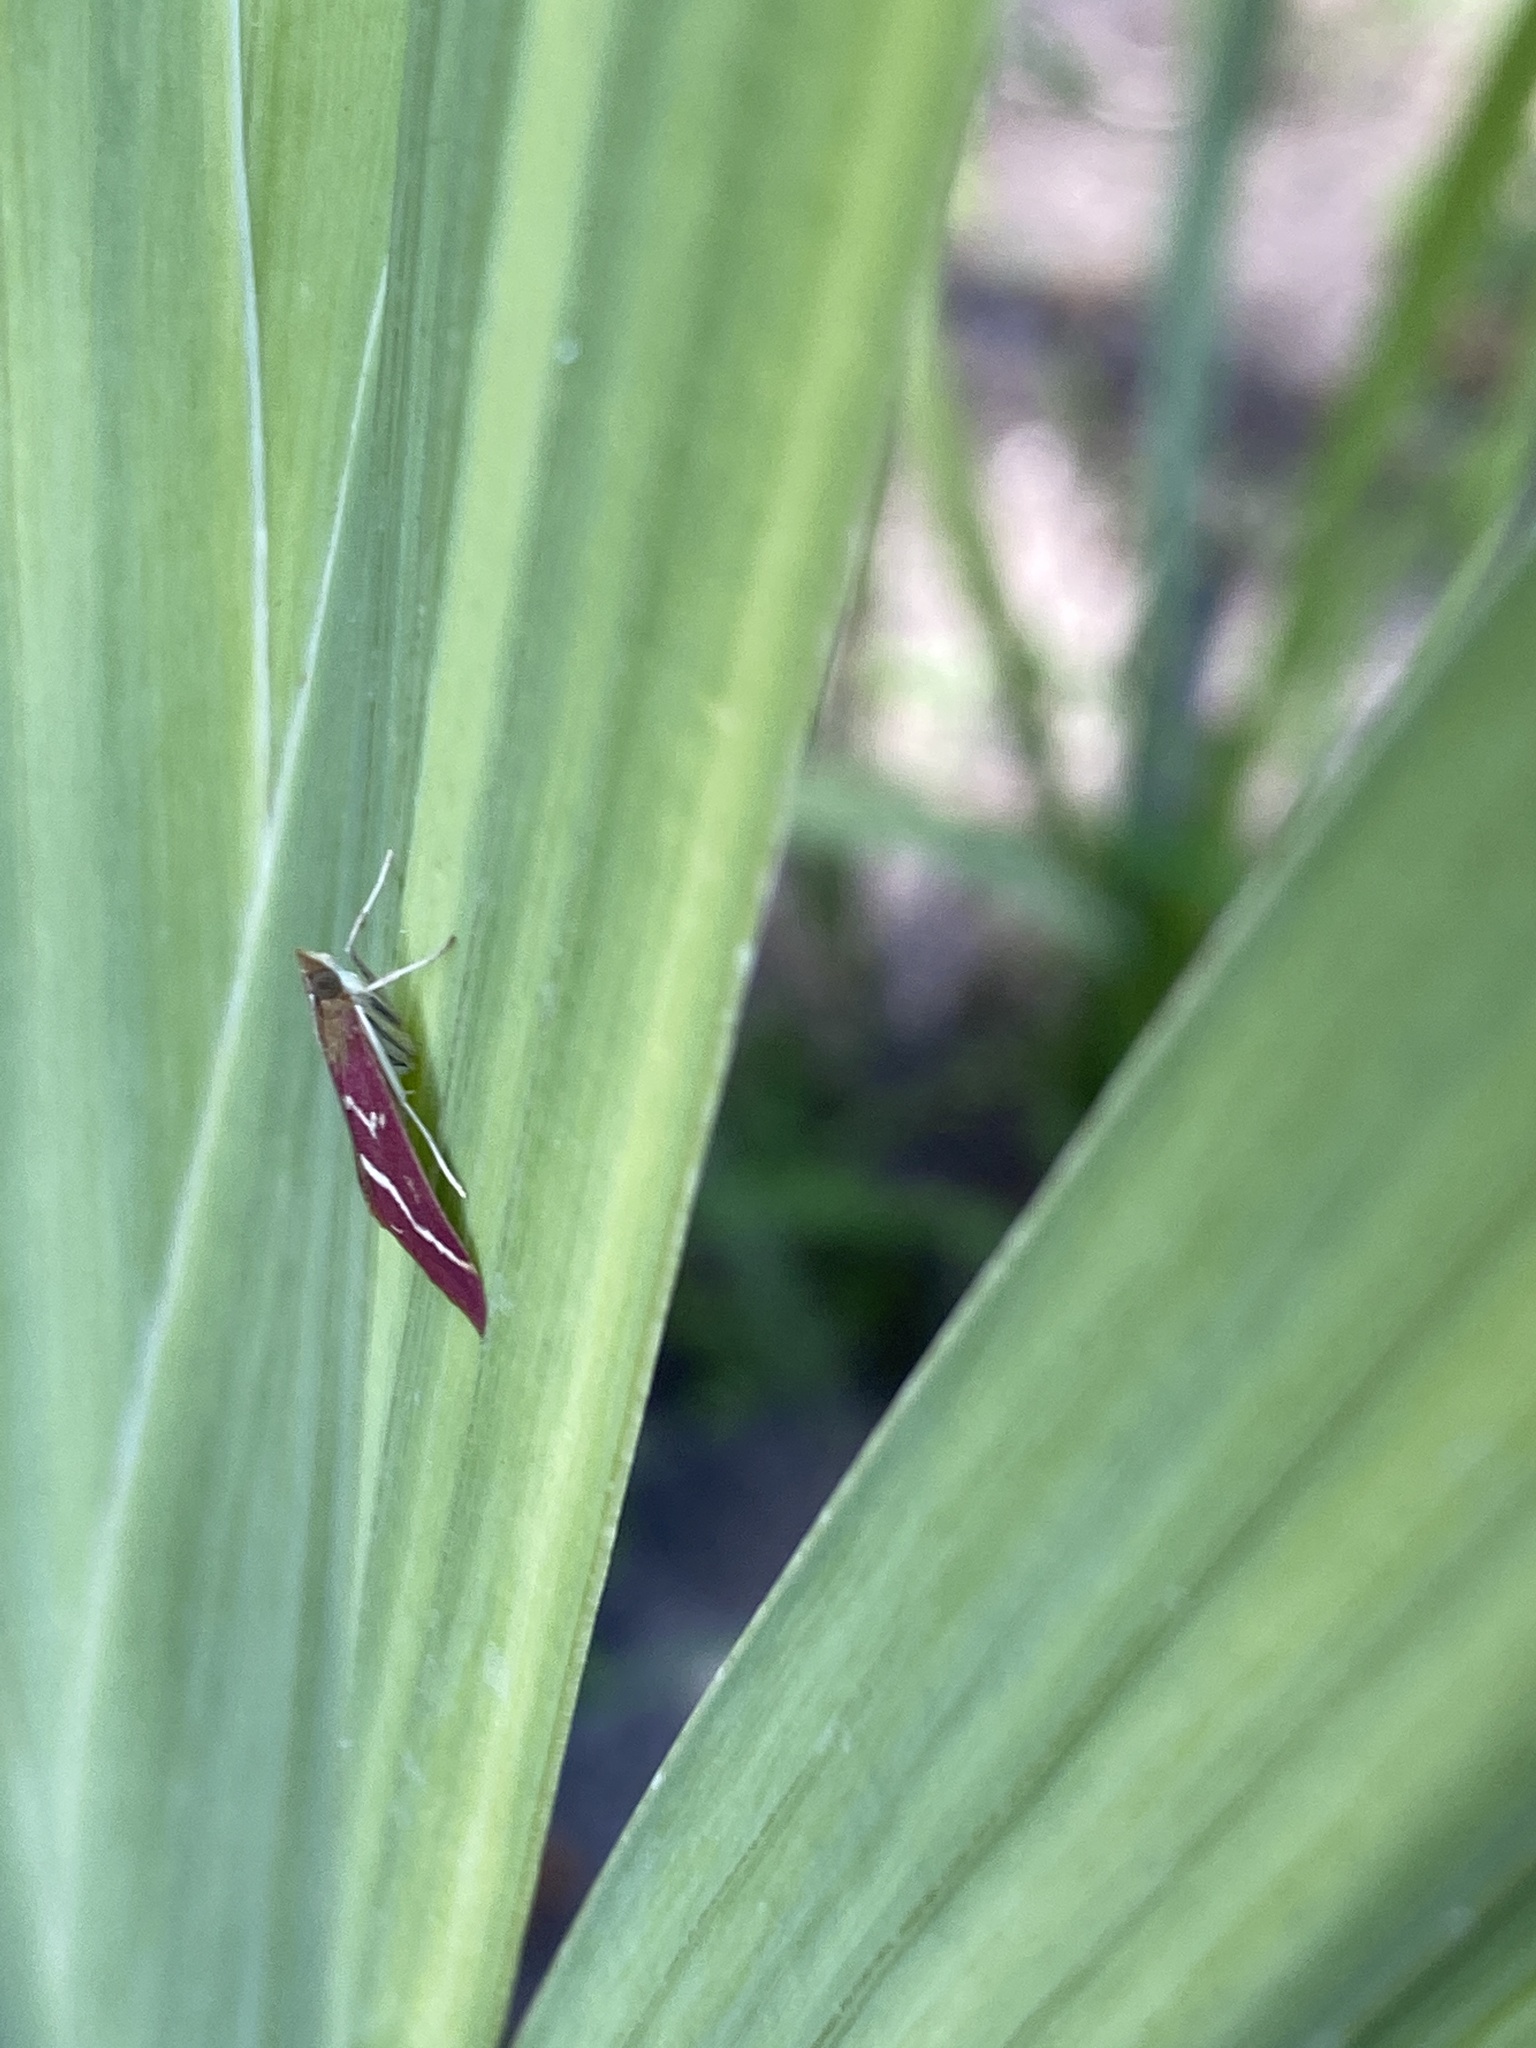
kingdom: Animalia
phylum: Arthropoda
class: Insecta
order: Lepidoptera
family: Crambidae
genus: Pyrausta
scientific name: Pyrausta volupialis
